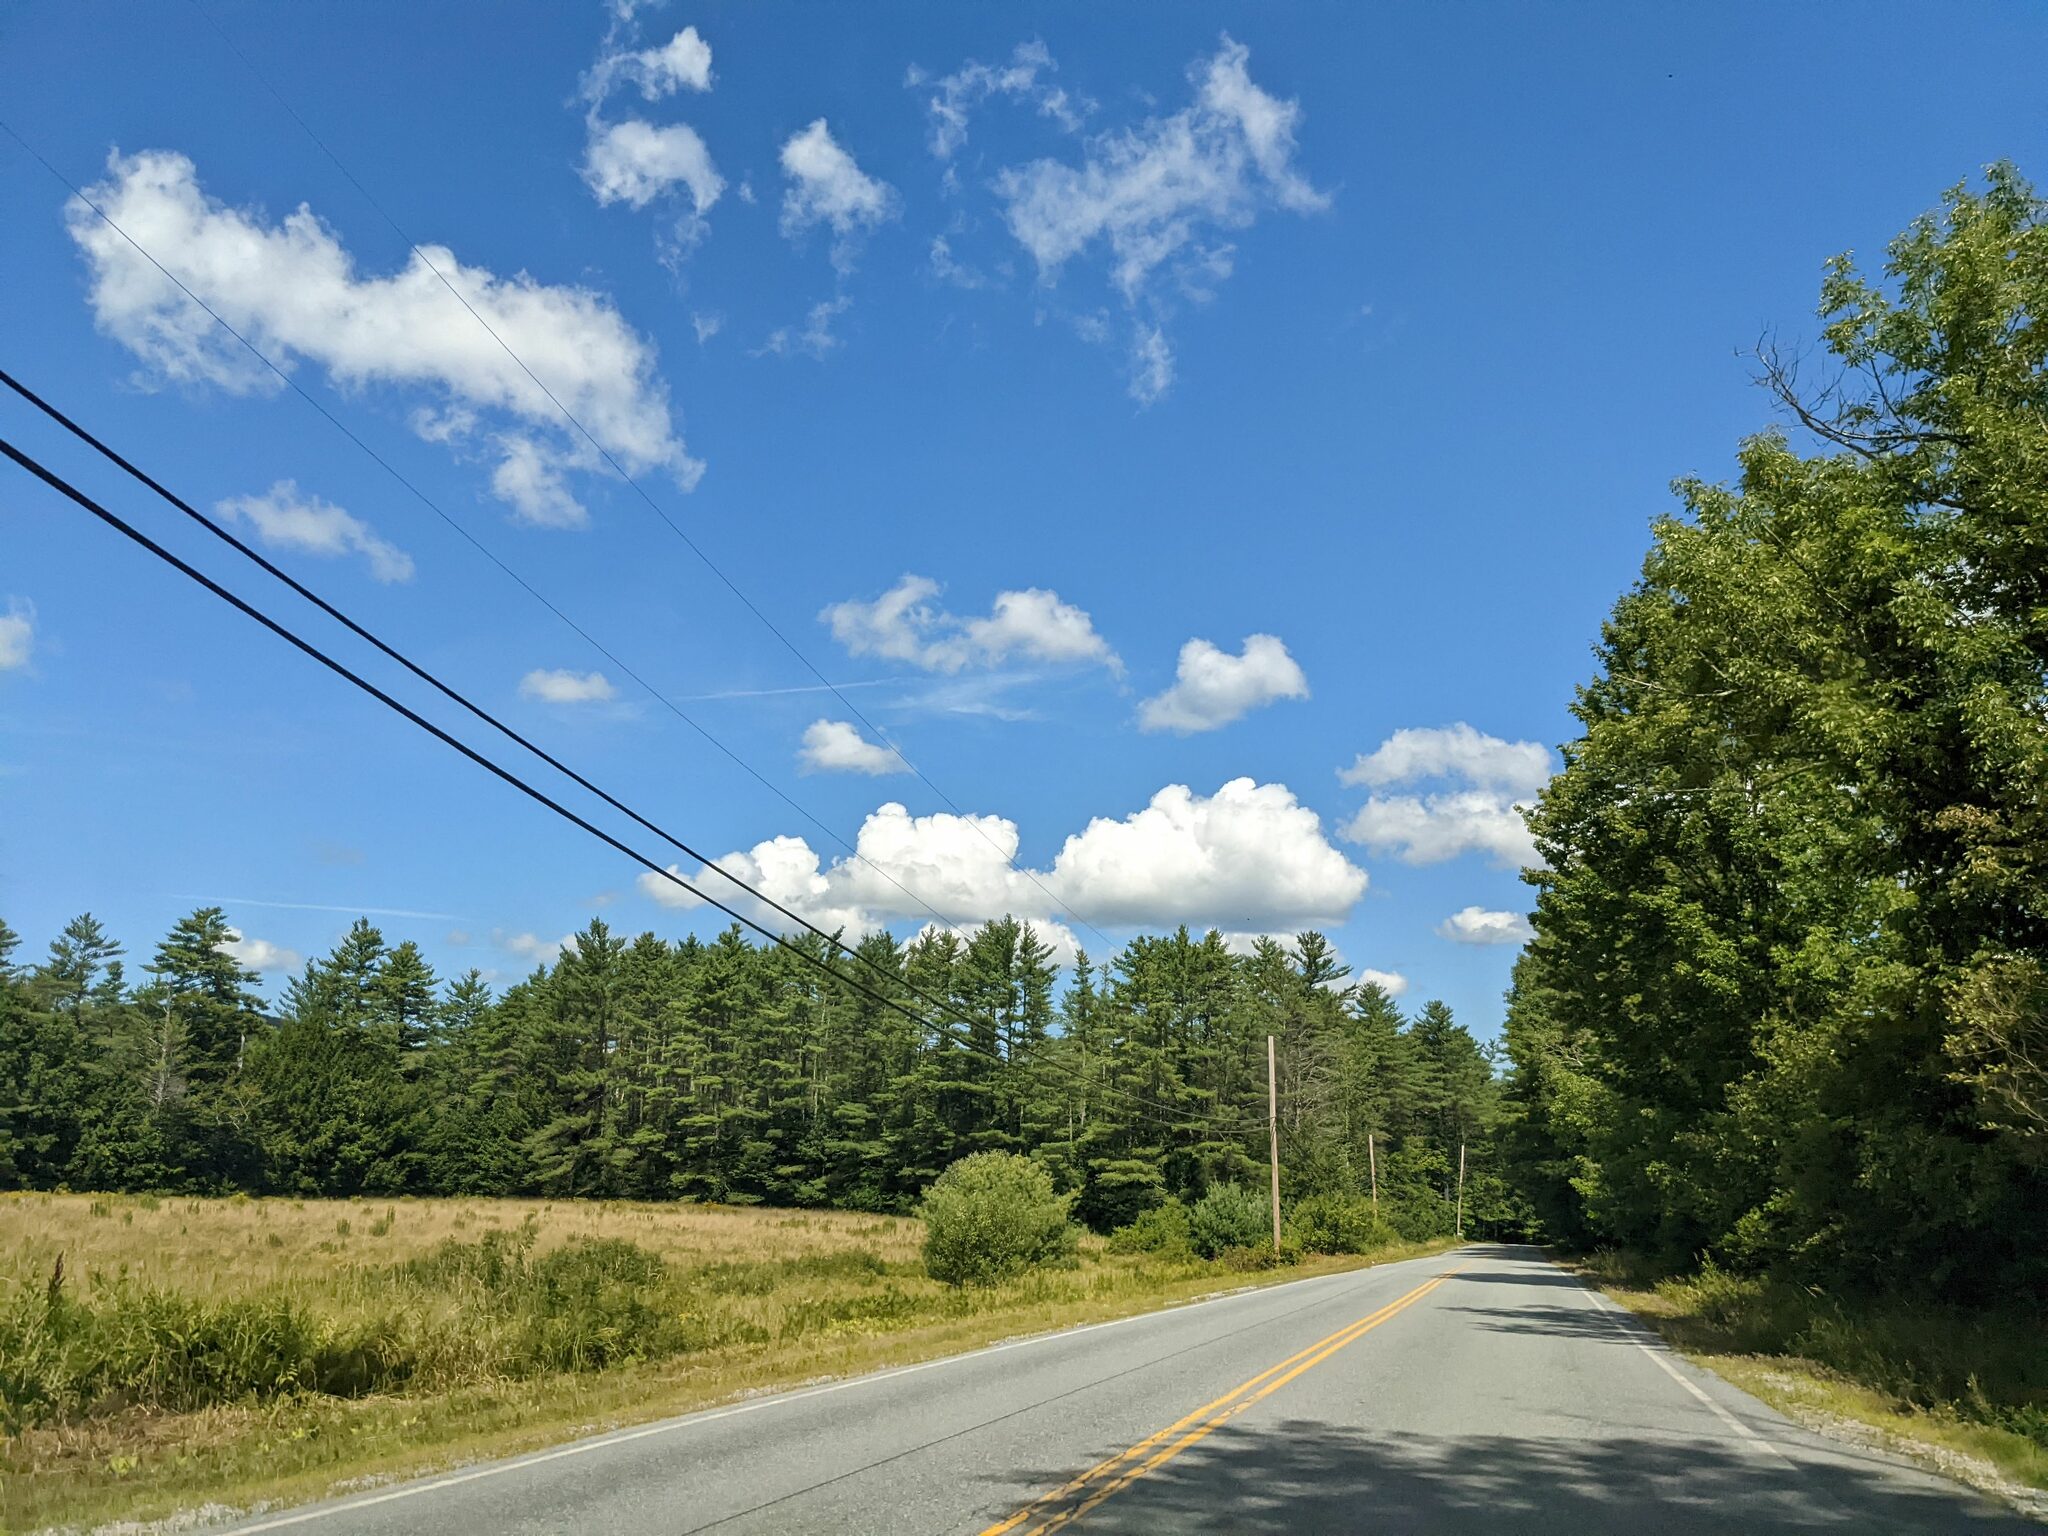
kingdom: Plantae
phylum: Tracheophyta
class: Pinopsida
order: Pinales
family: Pinaceae
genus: Pinus
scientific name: Pinus strobus
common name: Weymouth pine
